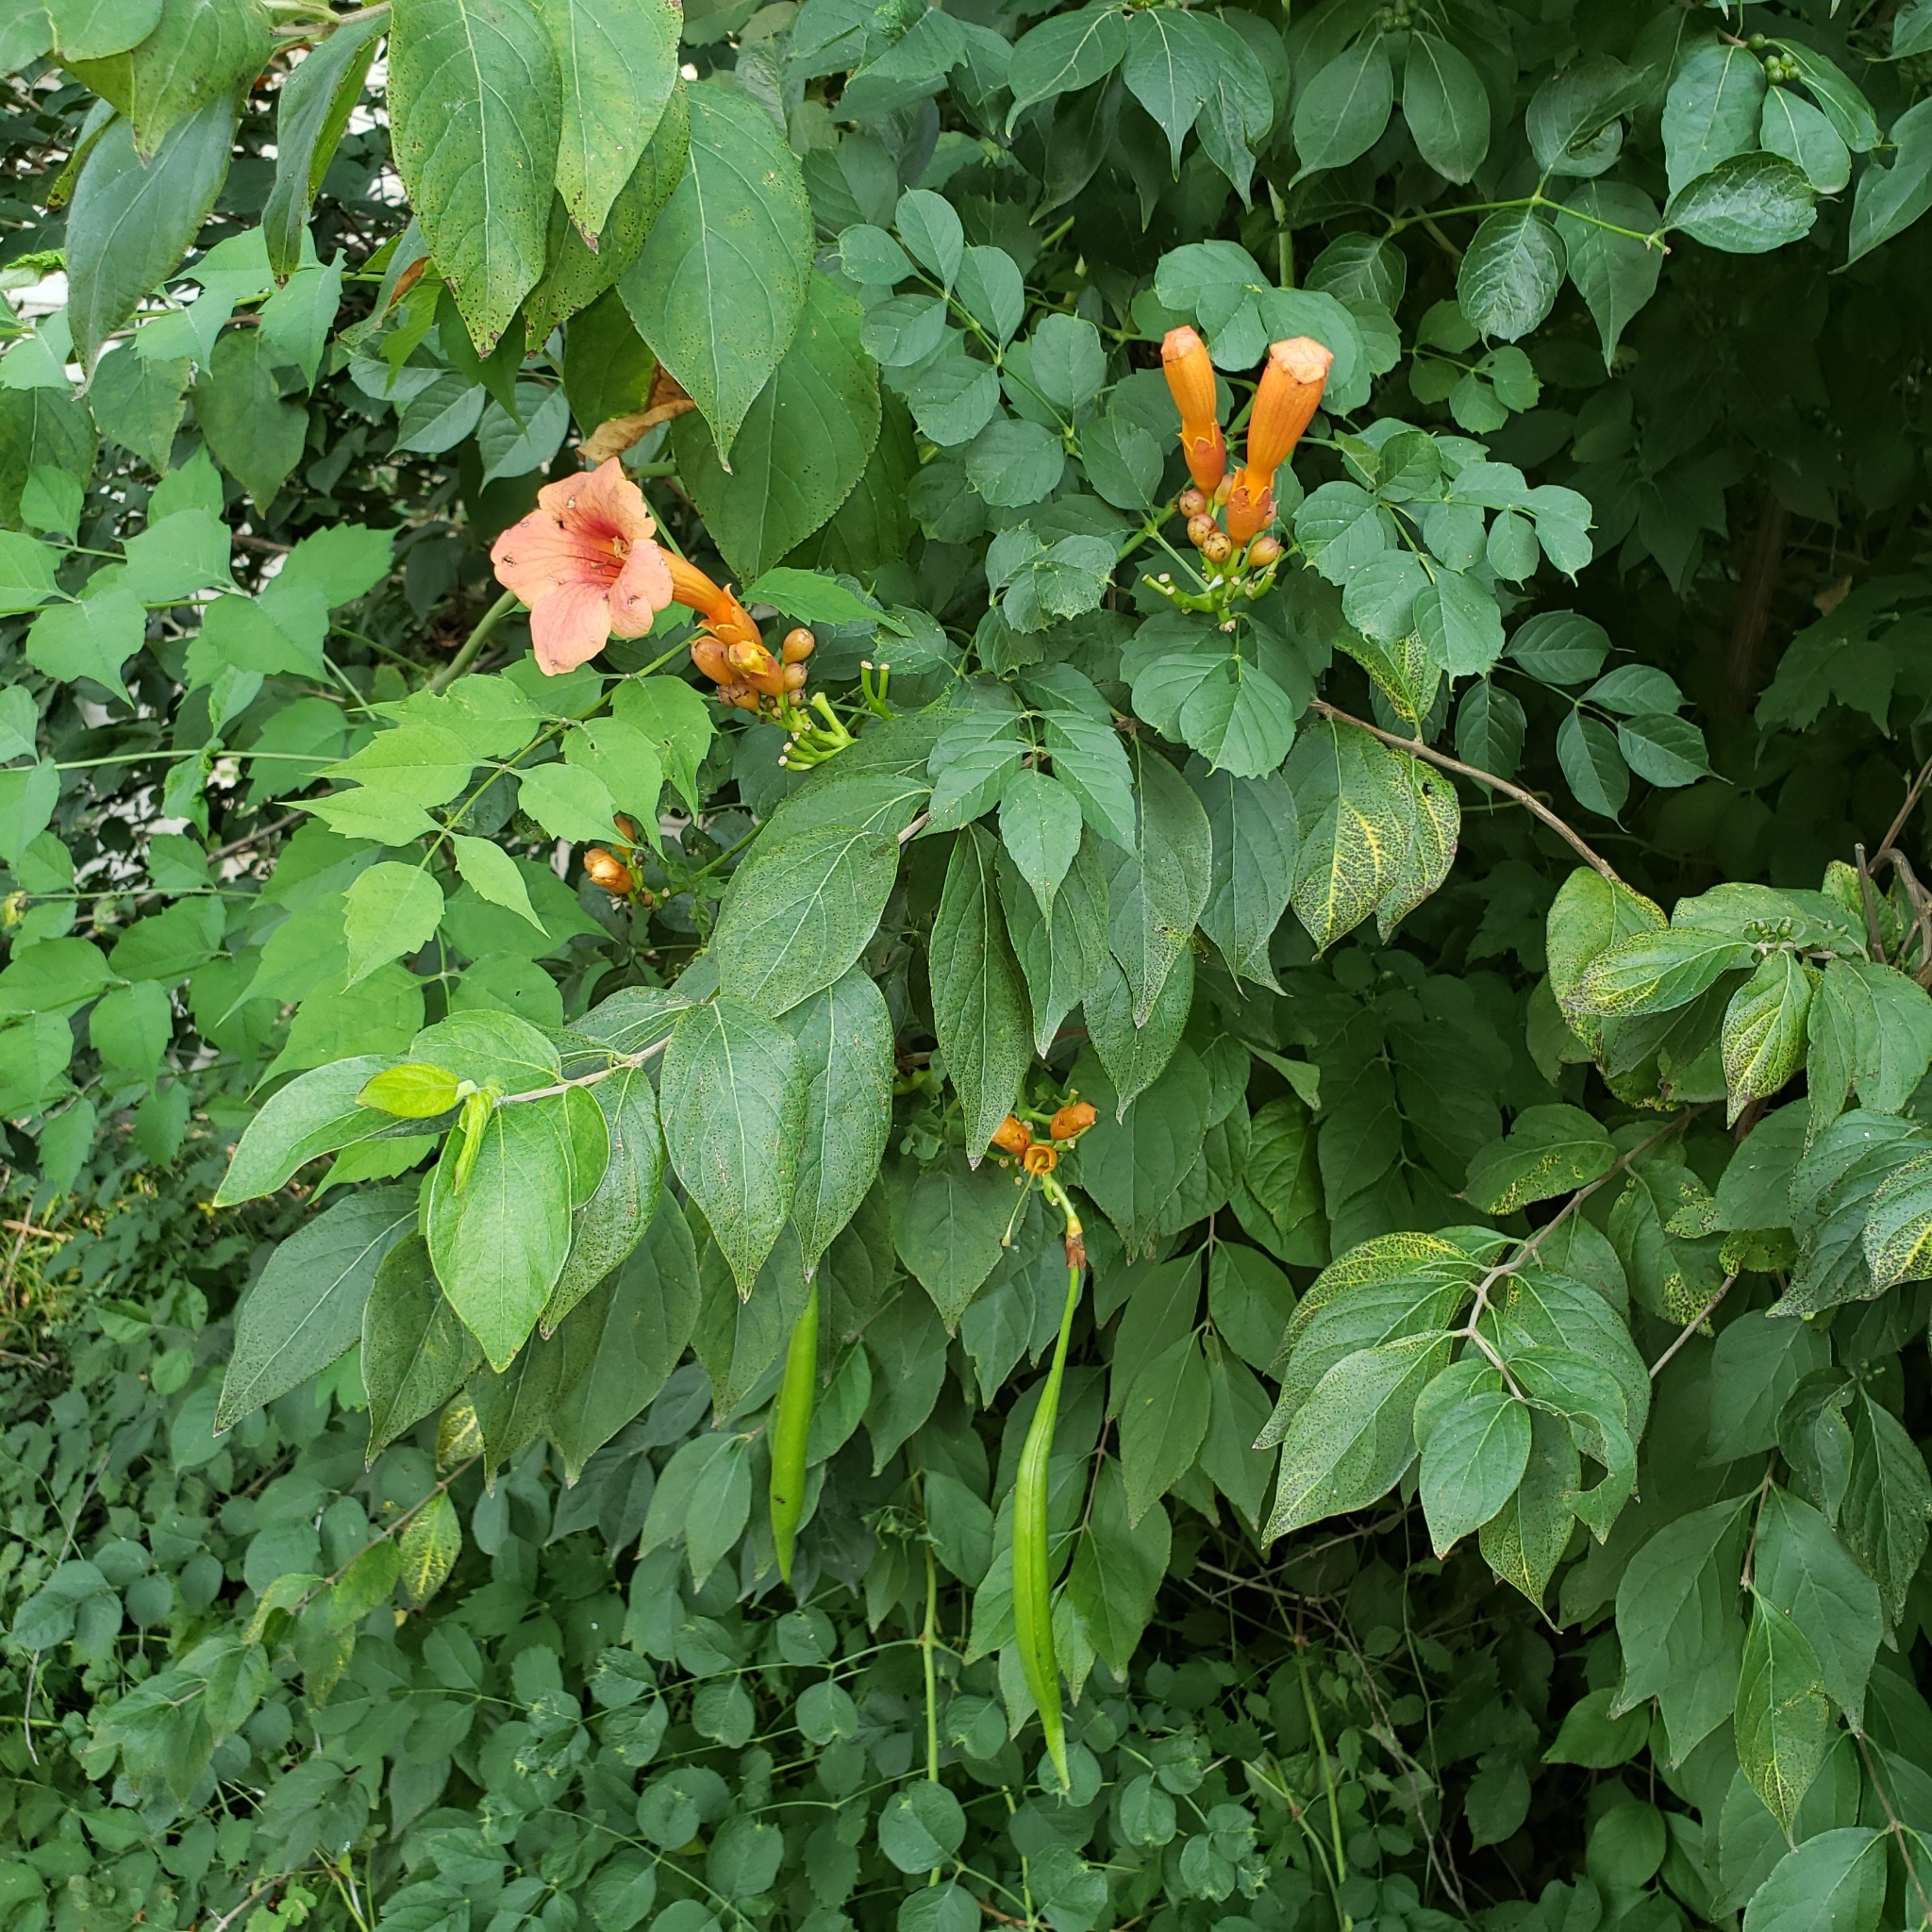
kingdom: Plantae
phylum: Tracheophyta
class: Magnoliopsida
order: Lamiales
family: Bignoniaceae
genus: Campsis
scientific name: Campsis radicans
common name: Trumpet-creeper
